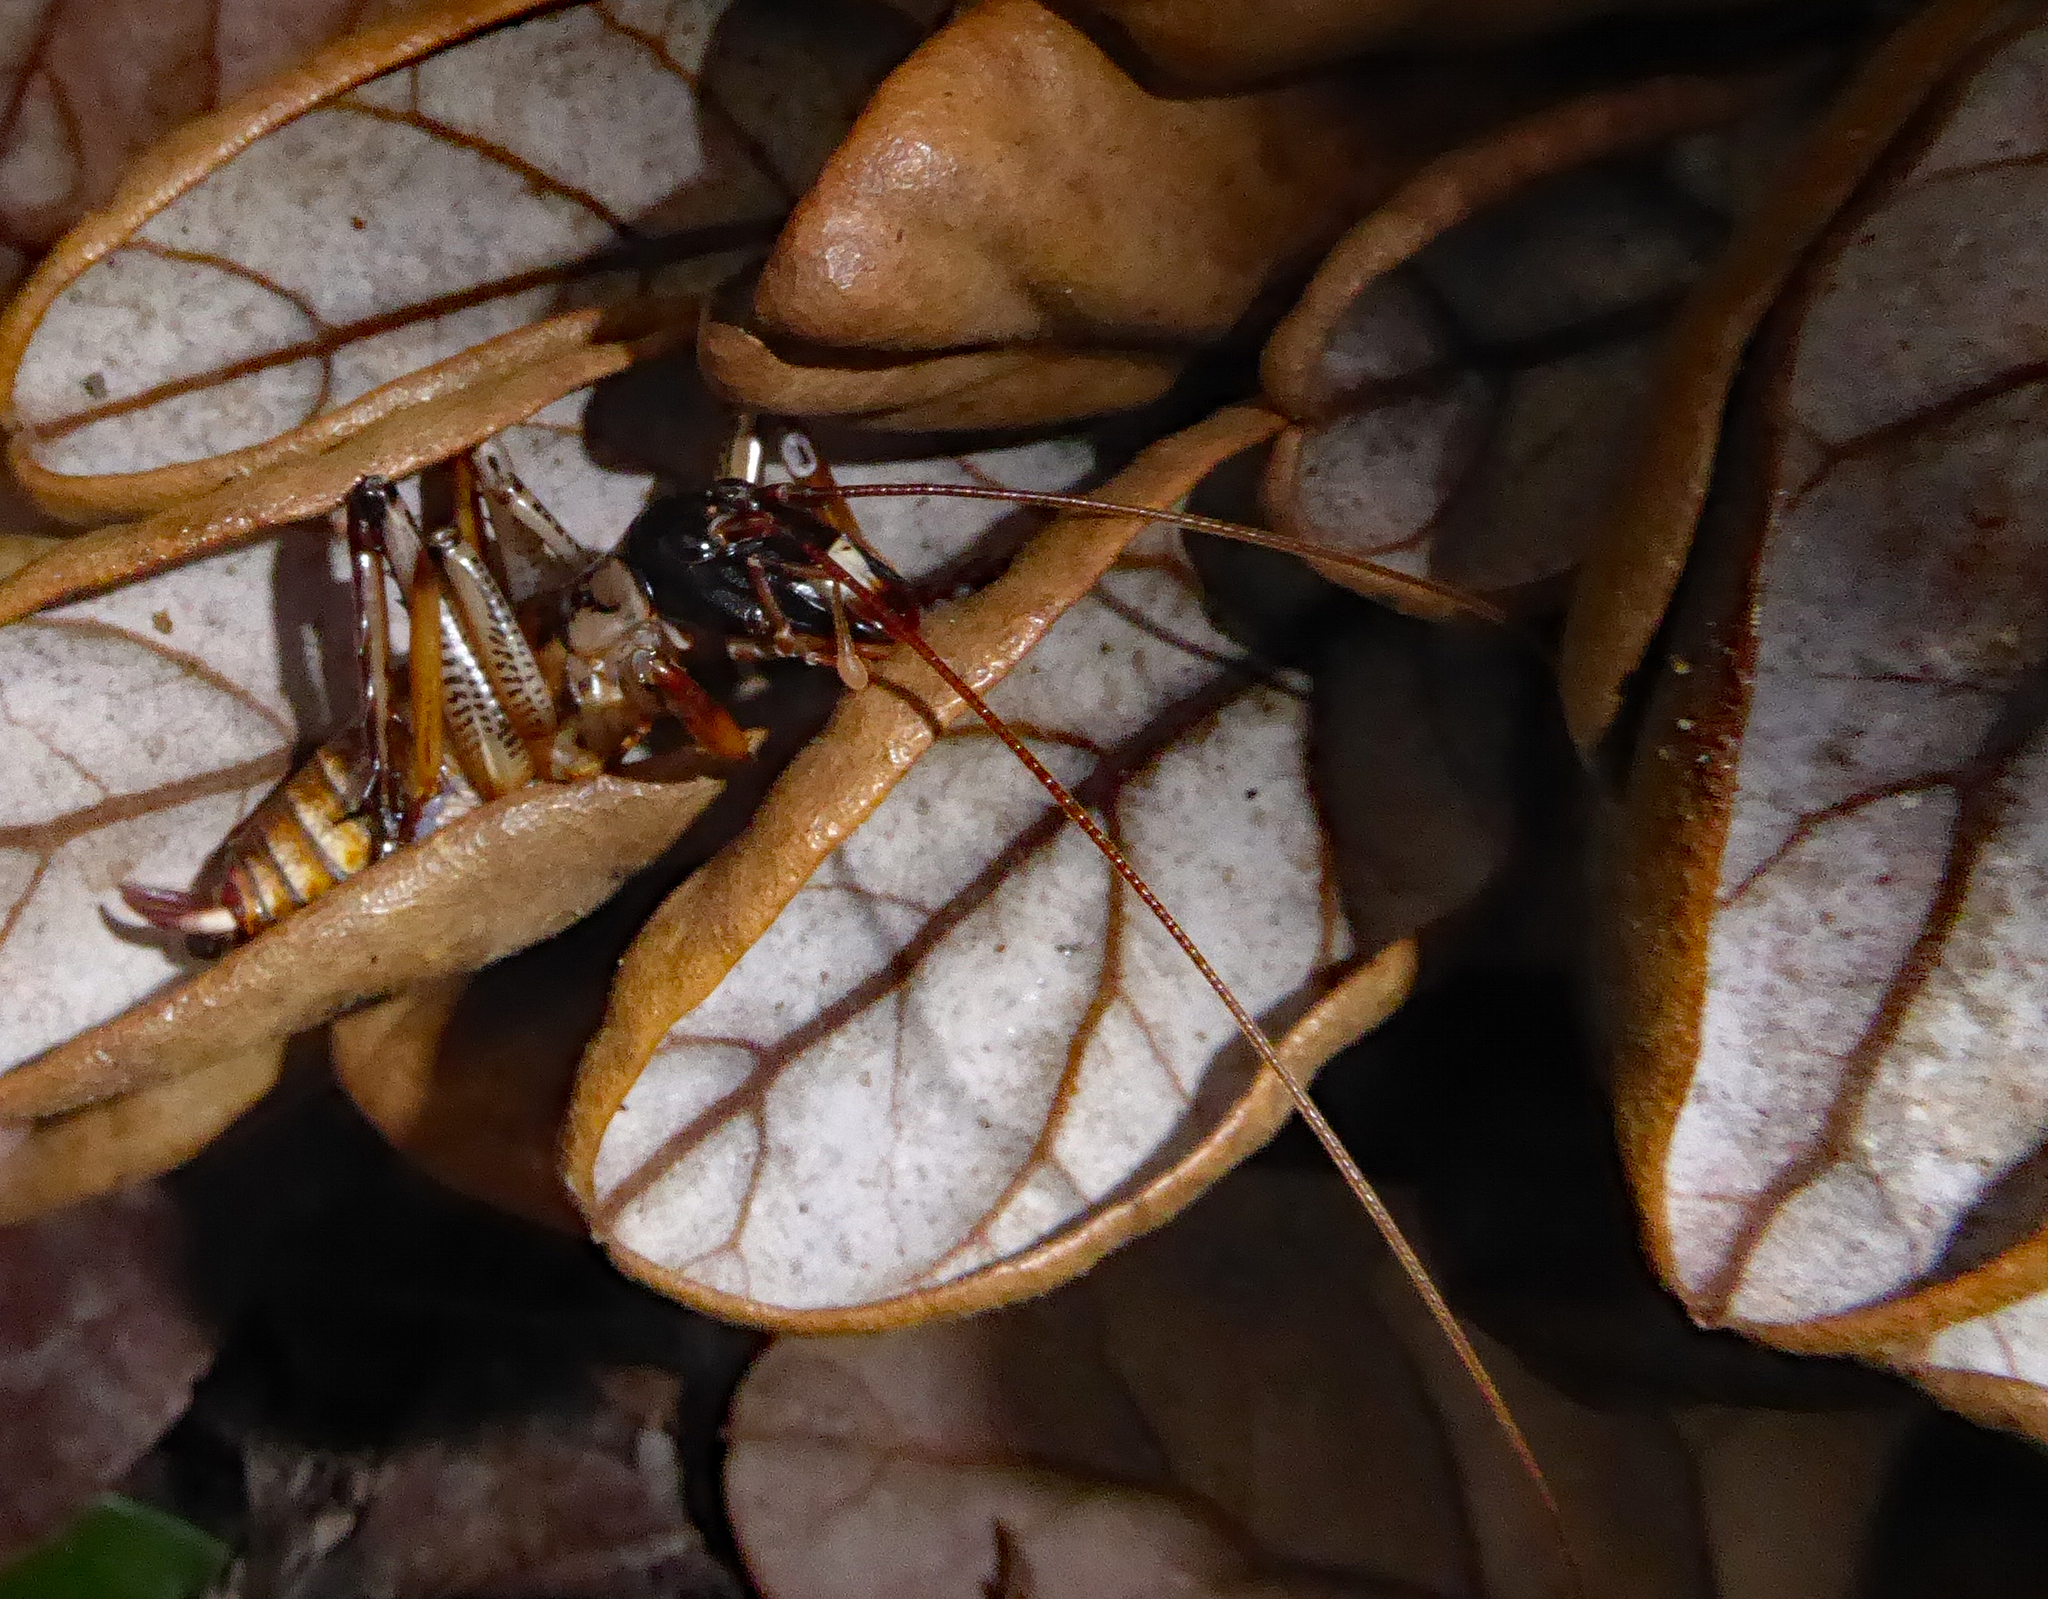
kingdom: Animalia
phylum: Arthropoda
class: Insecta
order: Orthoptera
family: Anostostomatidae
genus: Hemideina
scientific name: Hemideina thoracica
